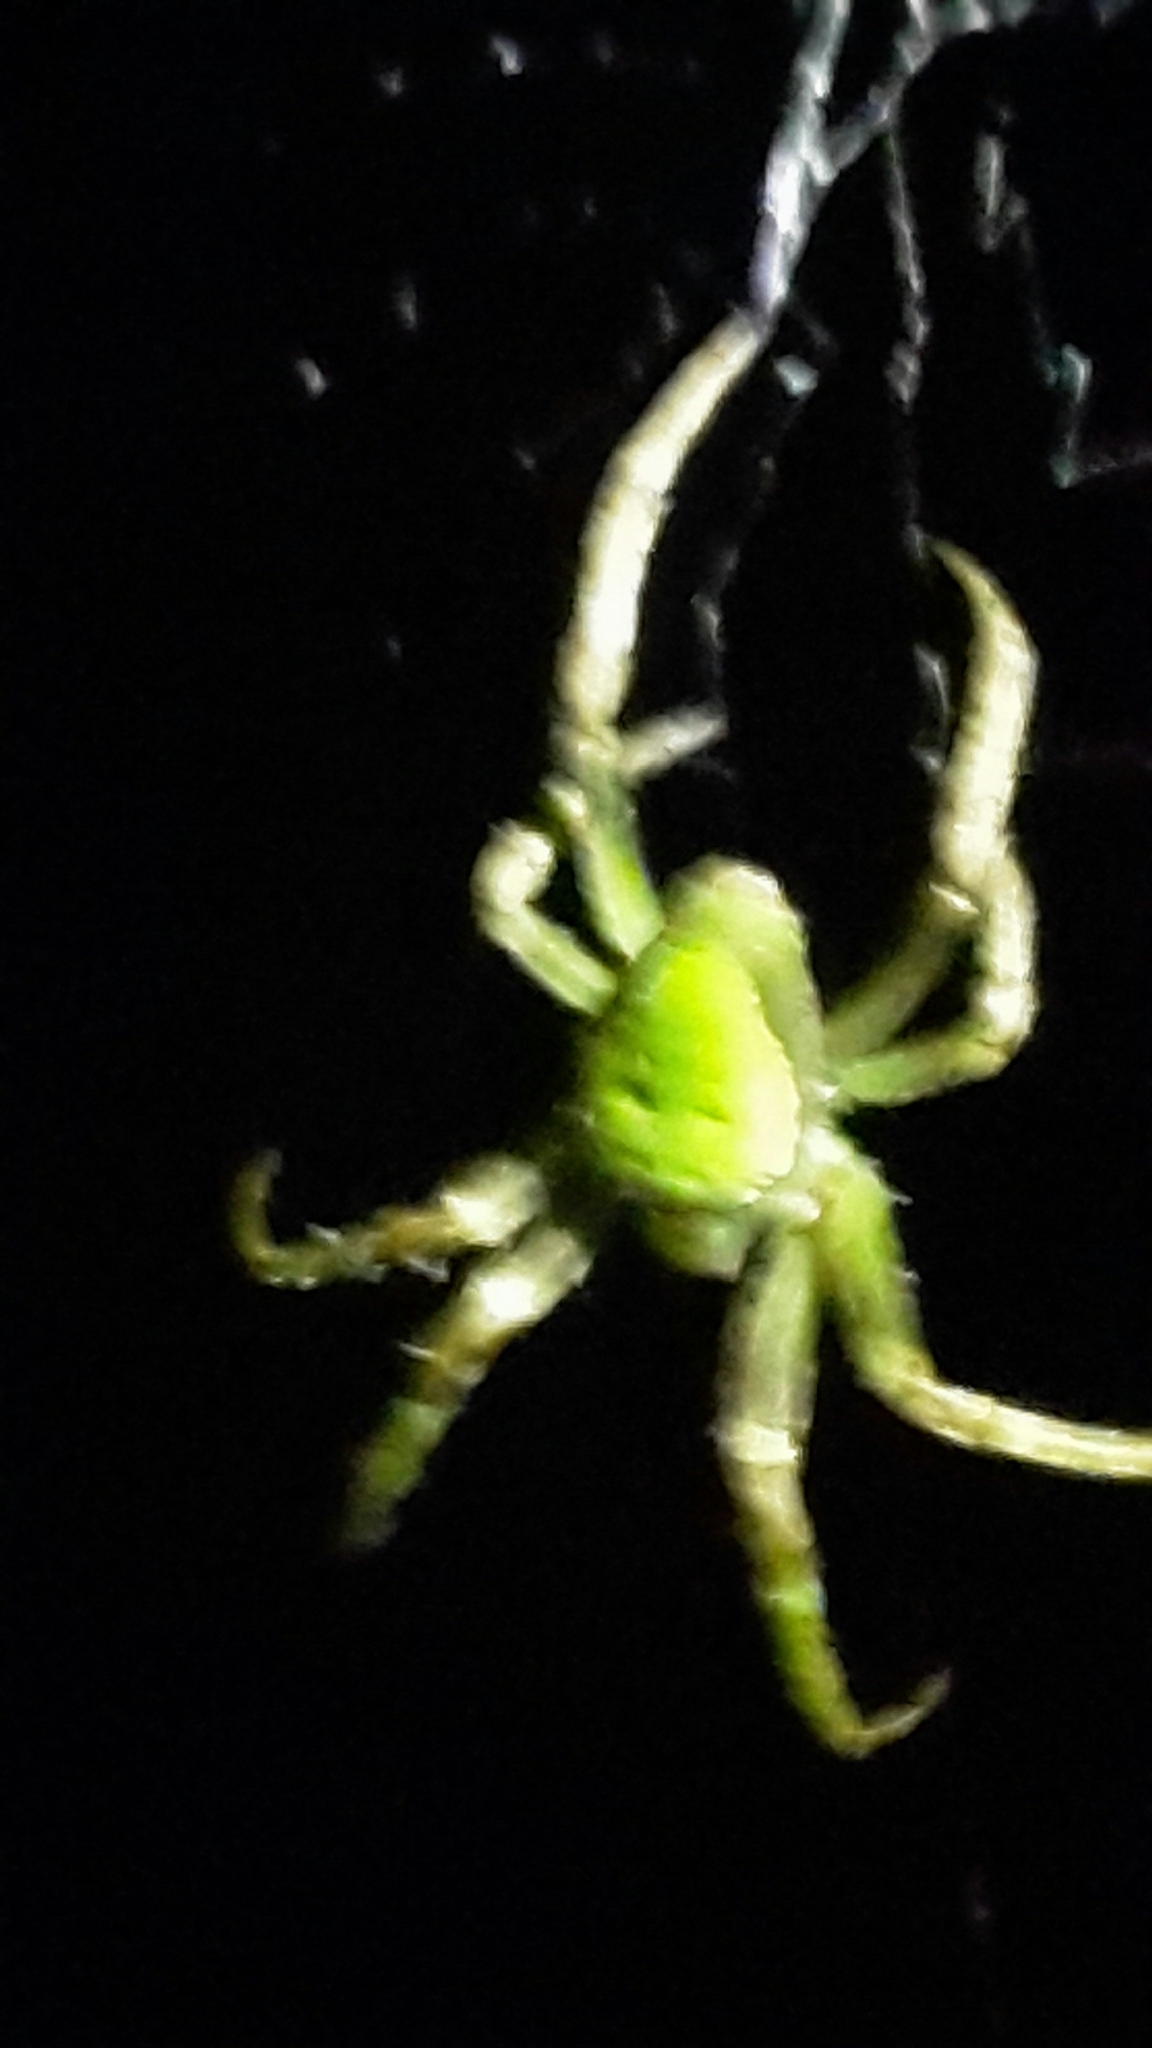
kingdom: Animalia
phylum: Arthropoda
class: Arachnida
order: Araneae
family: Araneidae
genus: Colaranea
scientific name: Colaranea viriditas
